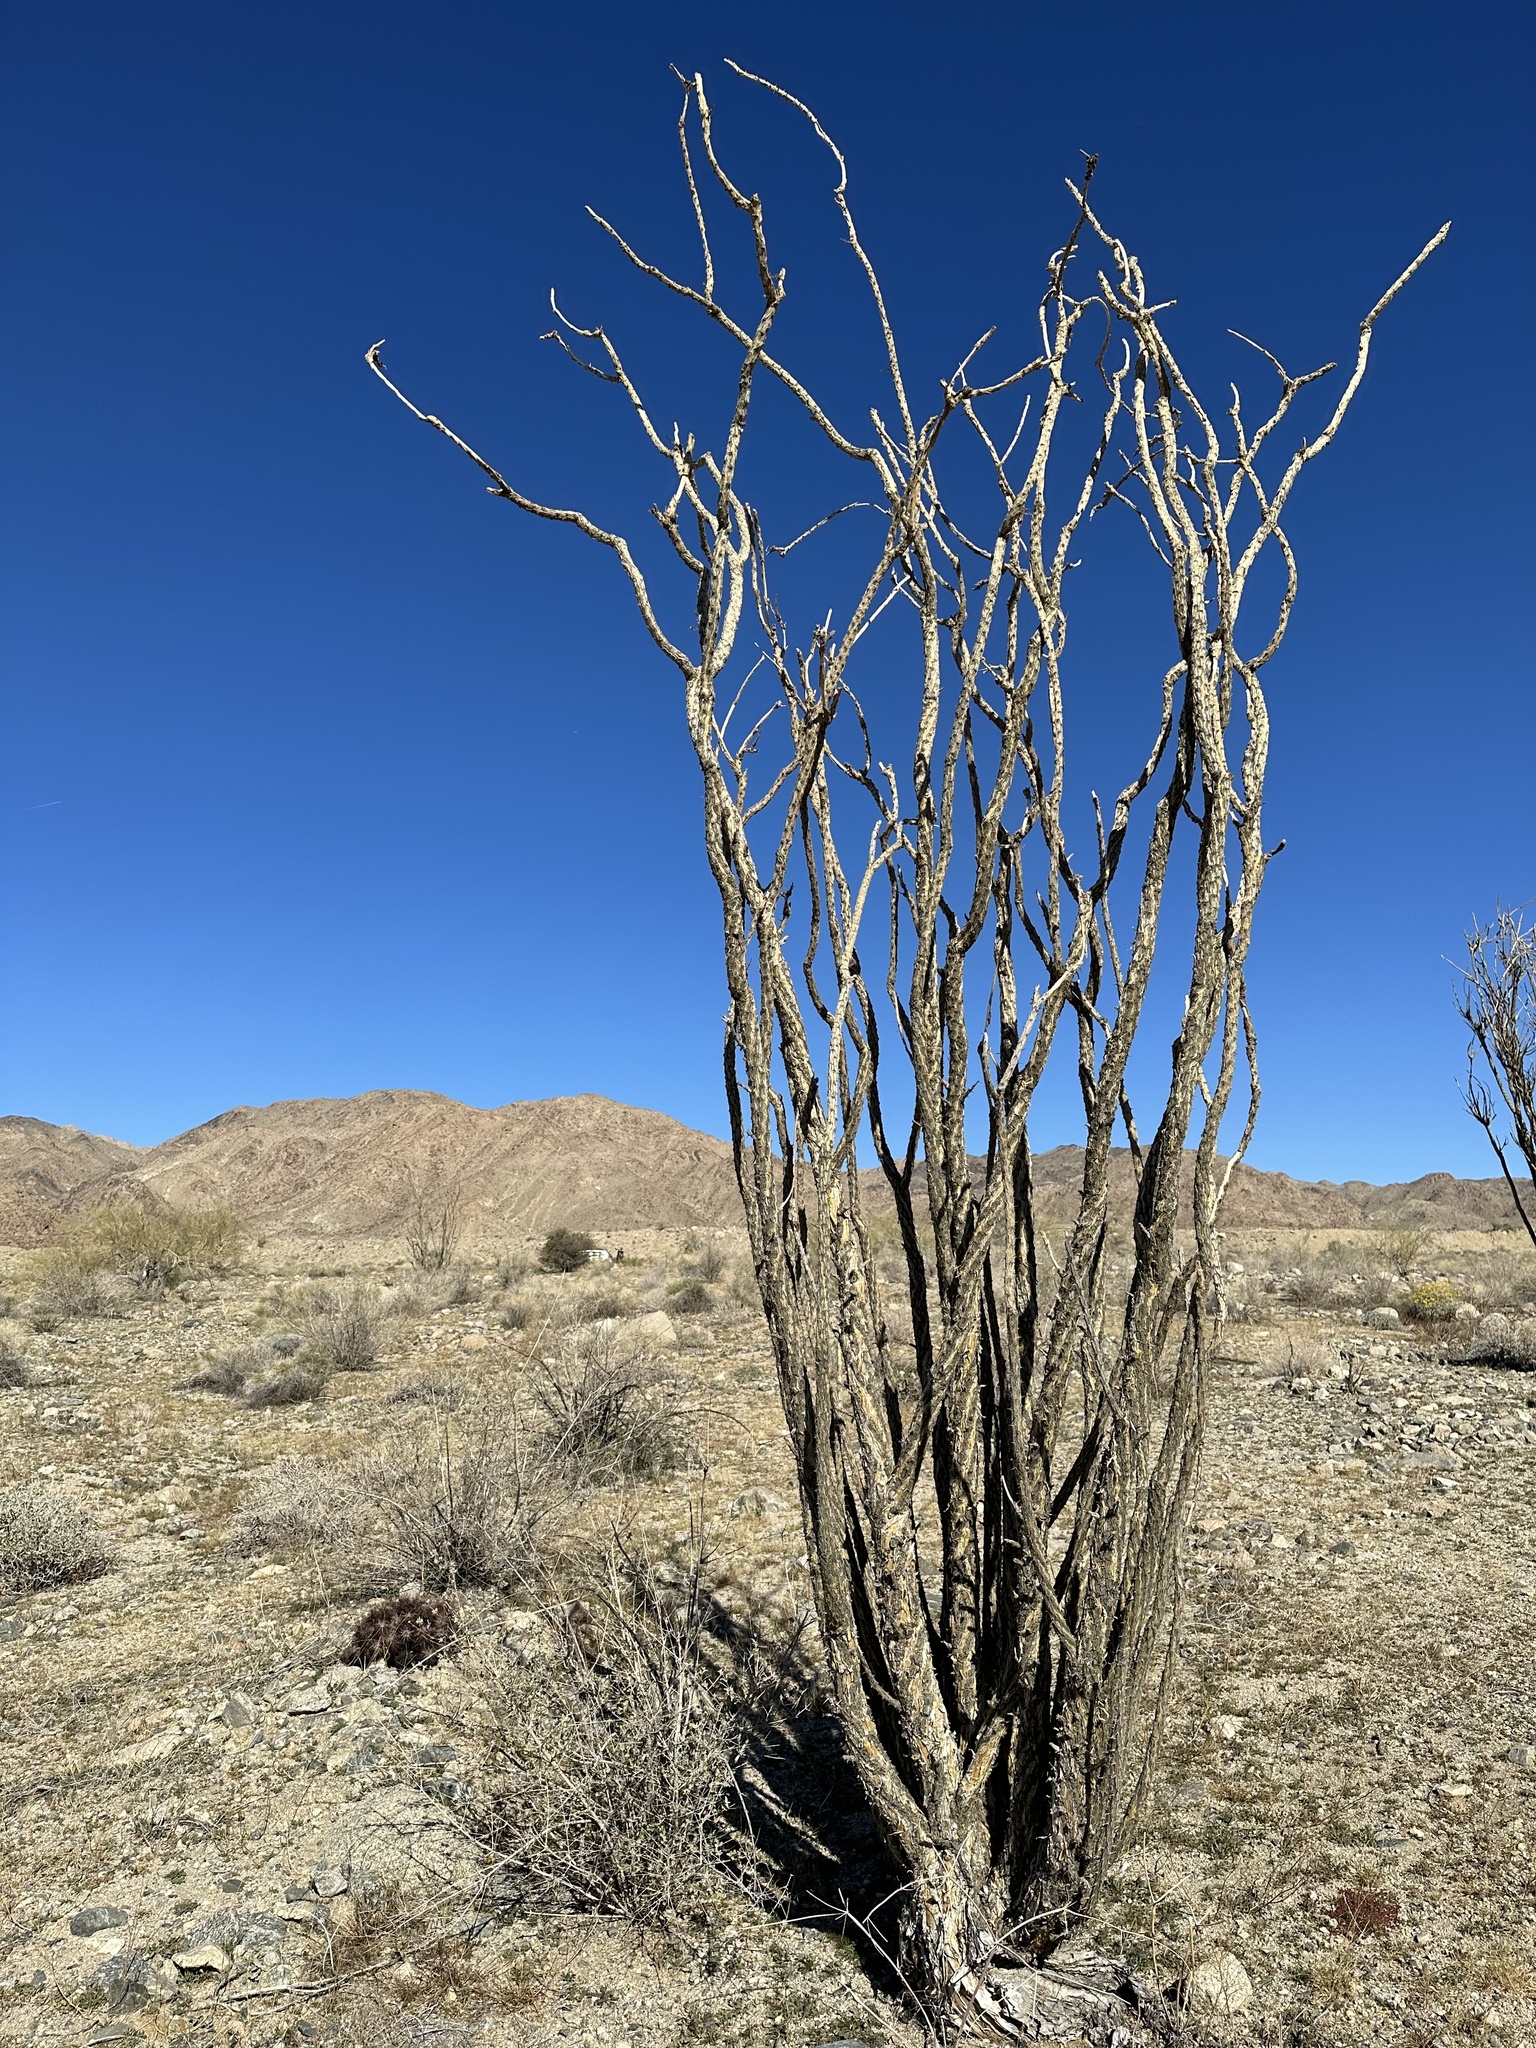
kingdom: Plantae
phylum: Tracheophyta
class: Magnoliopsida
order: Ericales
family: Fouquieriaceae
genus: Fouquieria
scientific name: Fouquieria splendens
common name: Vine-cactus
